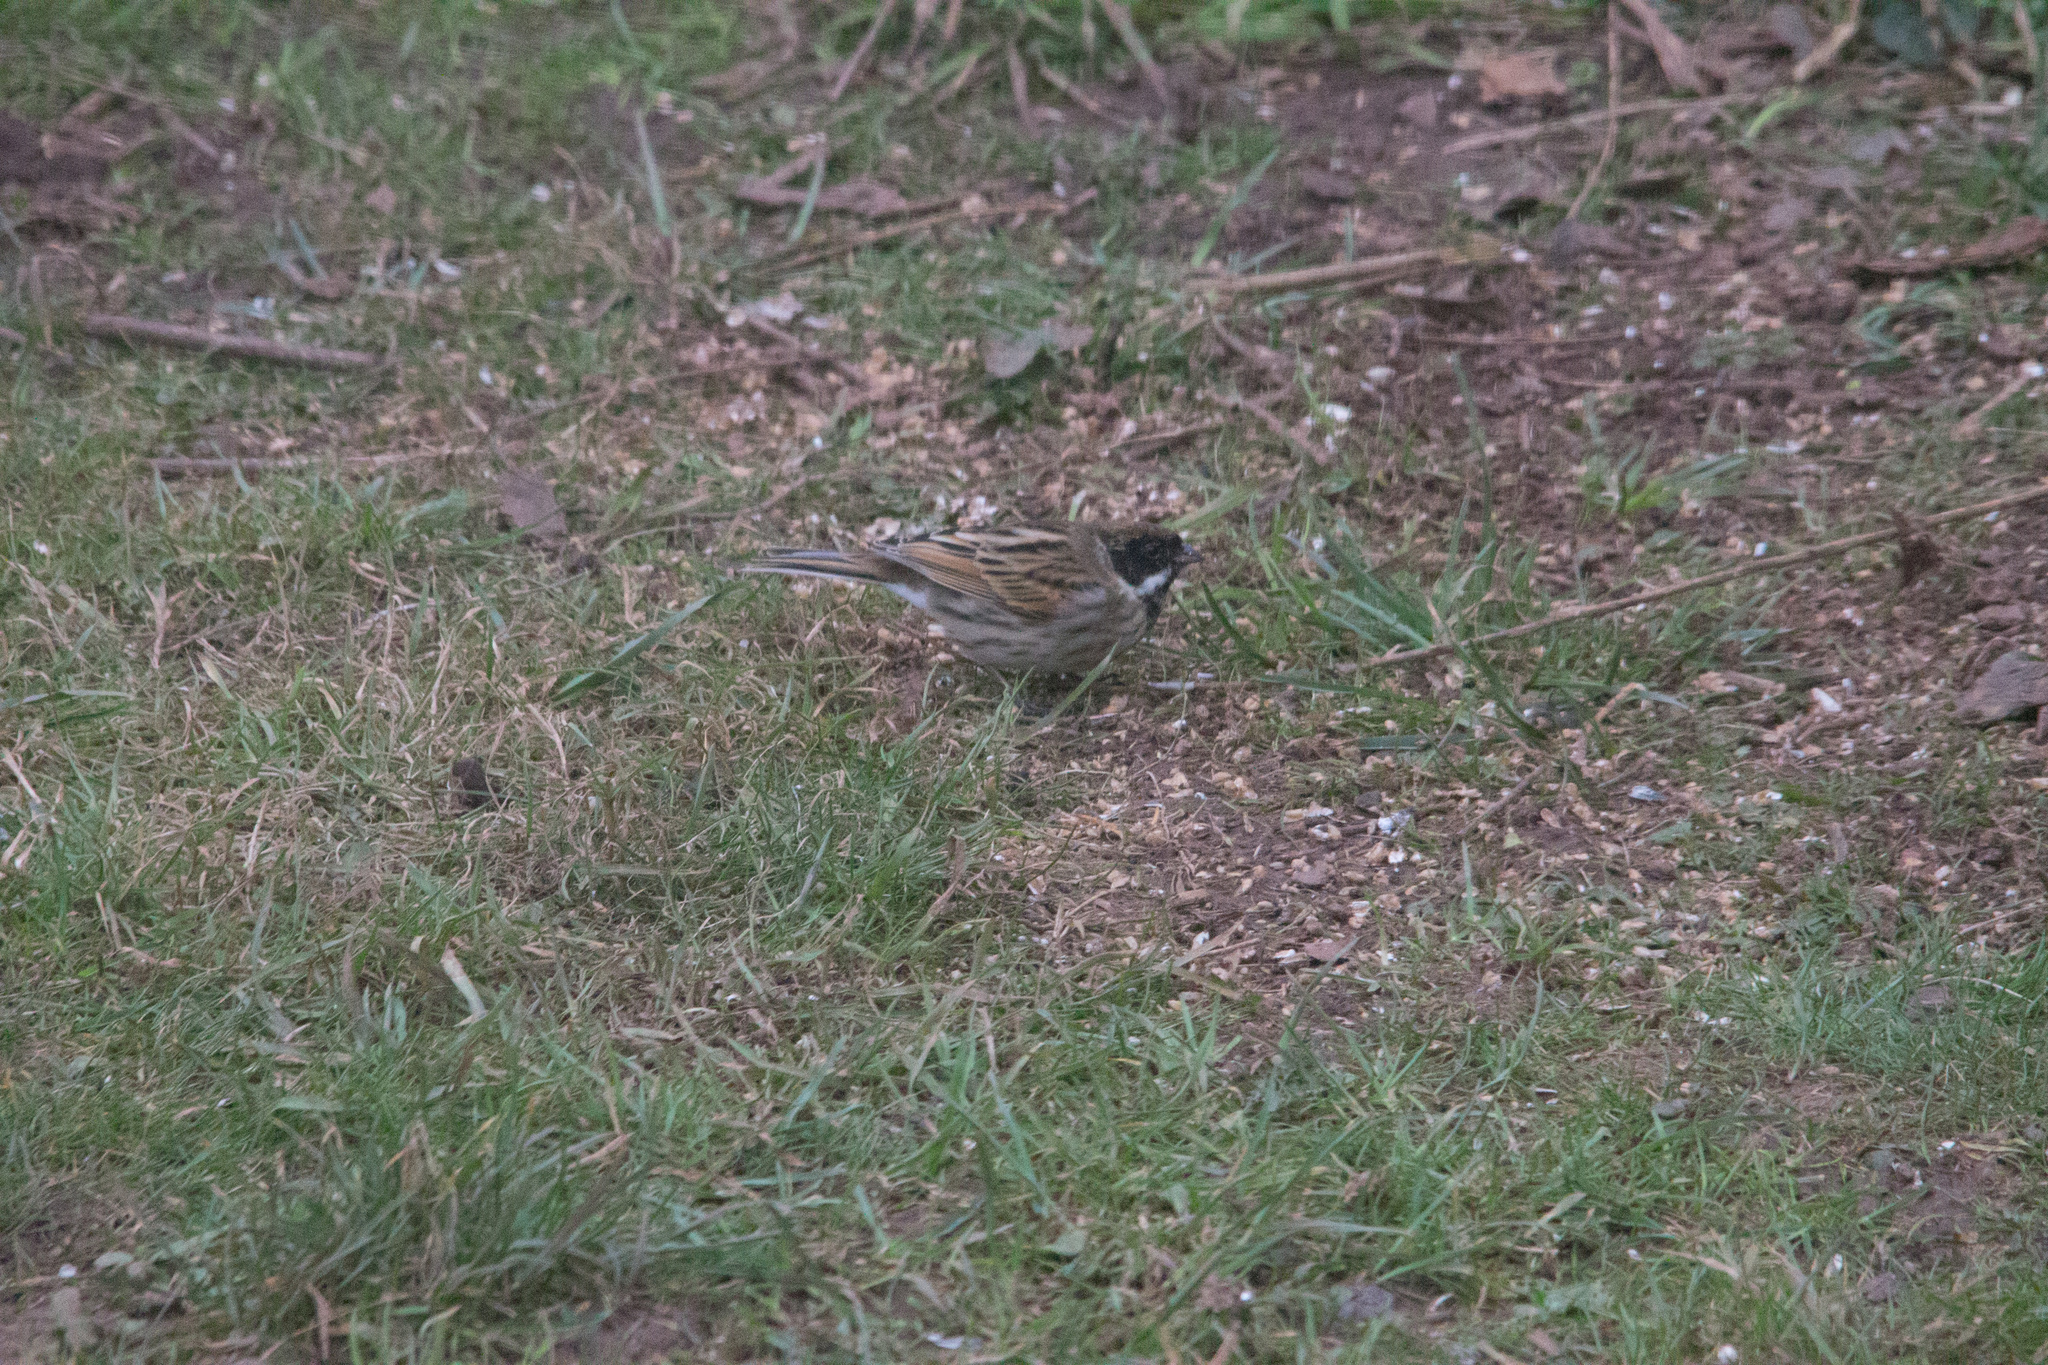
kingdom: Animalia
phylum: Chordata
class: Aves
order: Passeriformes
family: Emberizidae
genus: Emberiza
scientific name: Emberiza schoeniclus
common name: Reed bunting
